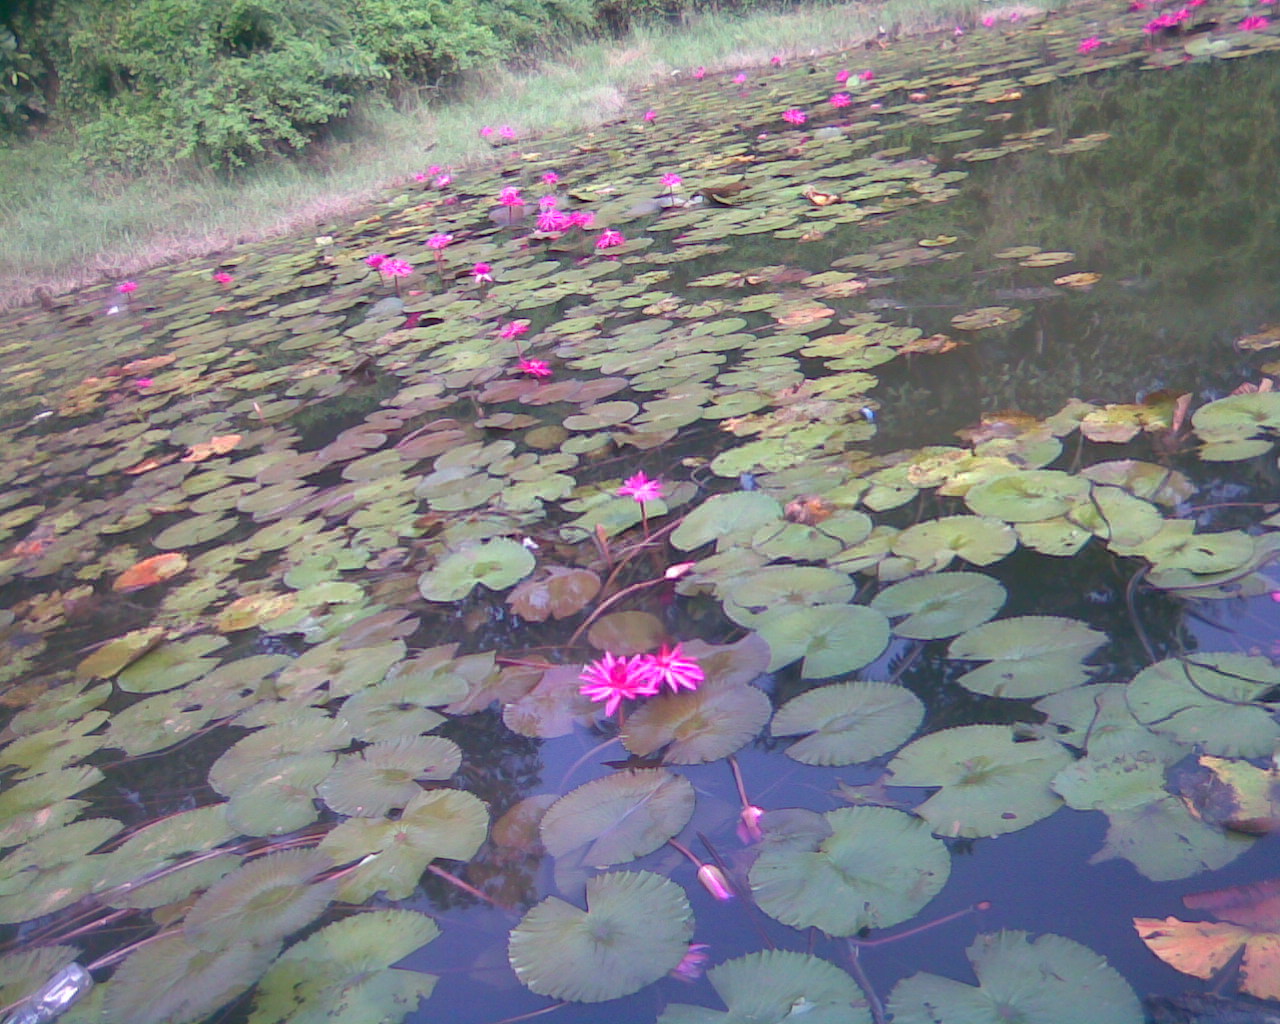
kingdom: Plantae
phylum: Tracheophyta
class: Magnoliopsida
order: Nymphaeales
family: Nymphaeaceae
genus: Nymphaea
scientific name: Nymphaea rubra
